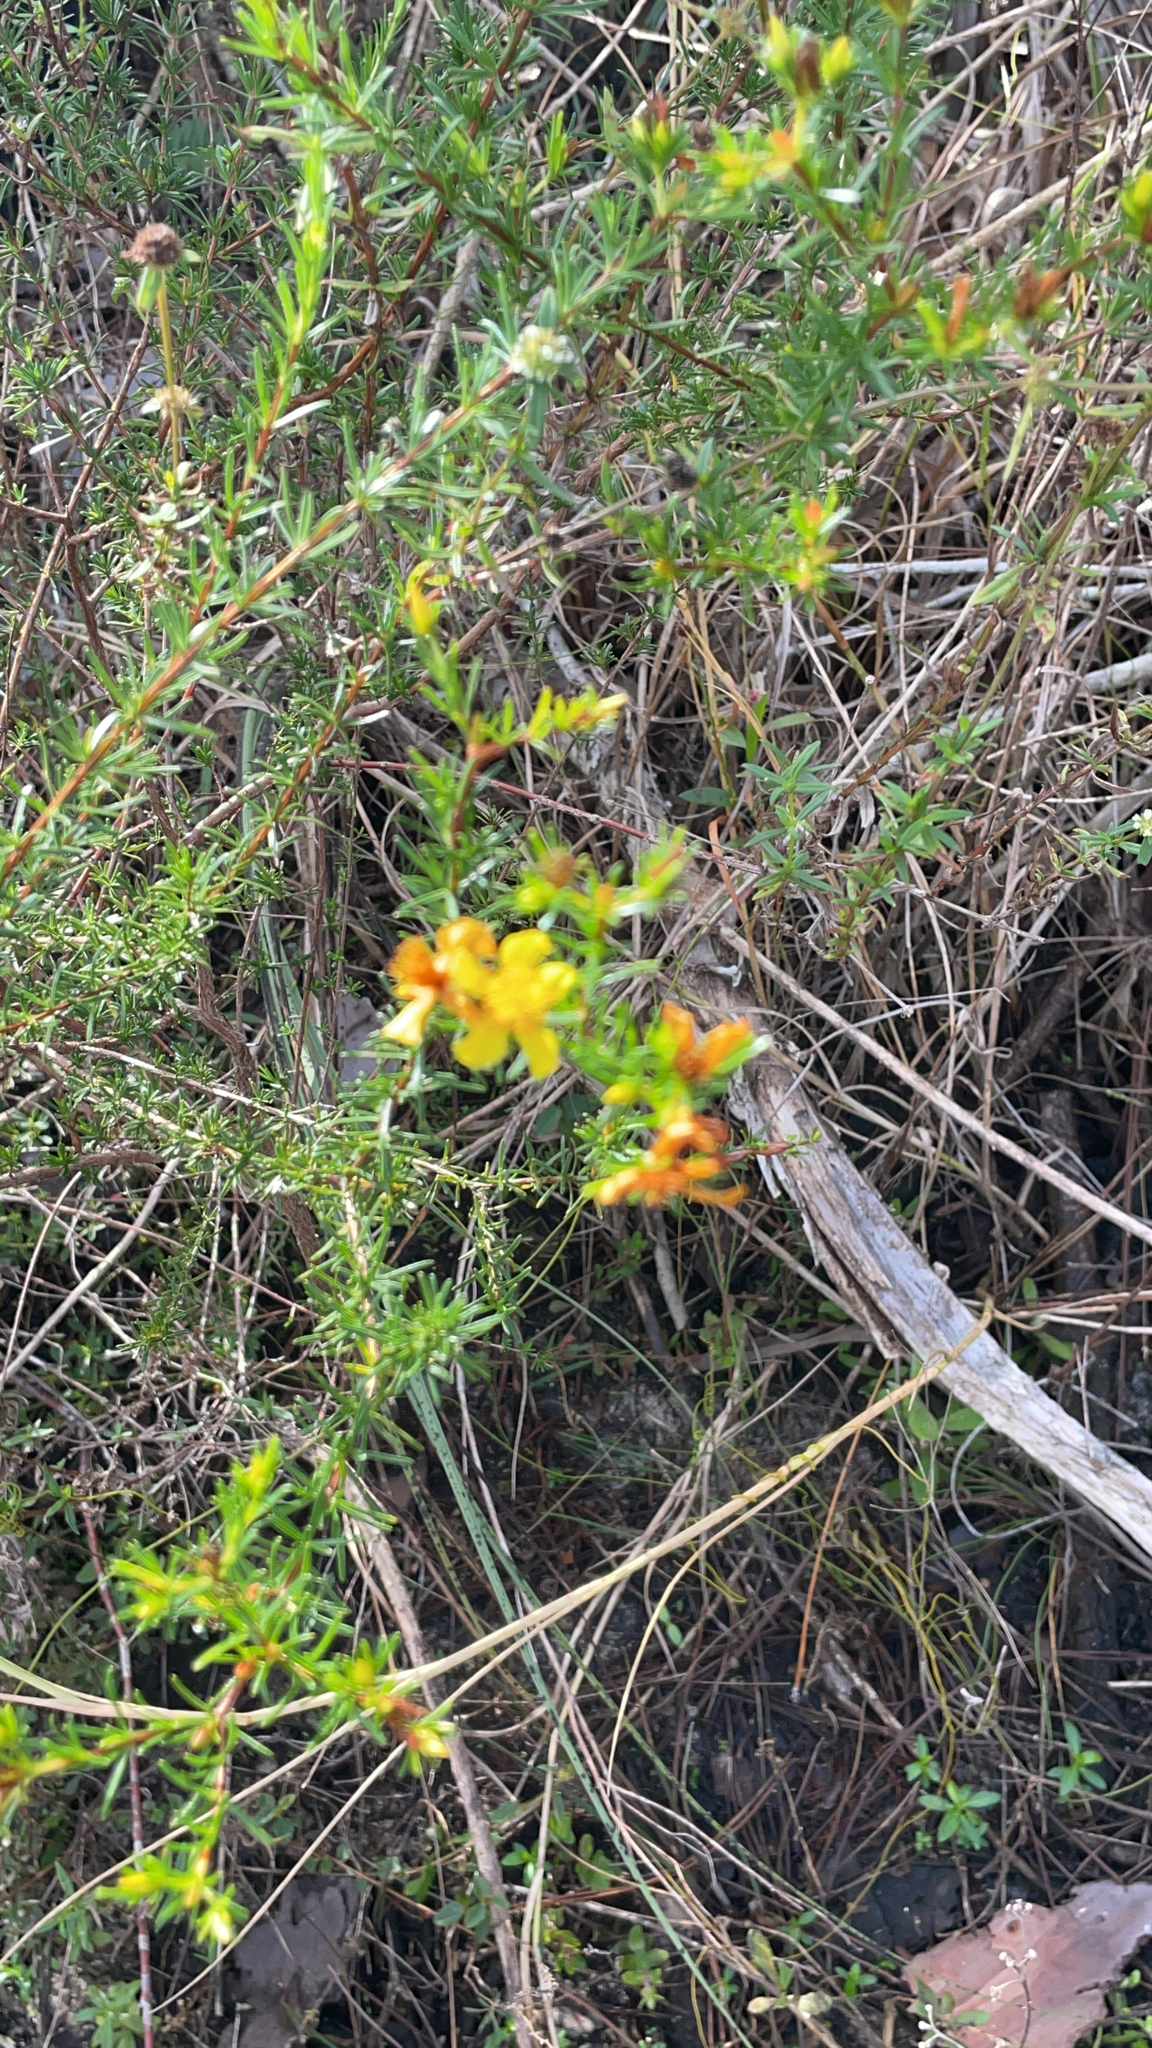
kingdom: Plantae
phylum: Tracheophyta
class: Magnoliopsida
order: Malpighiales
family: Hypericaceae
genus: Hypericum
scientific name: Hypericum fasciculatum
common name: Peelbark st. john's wort
